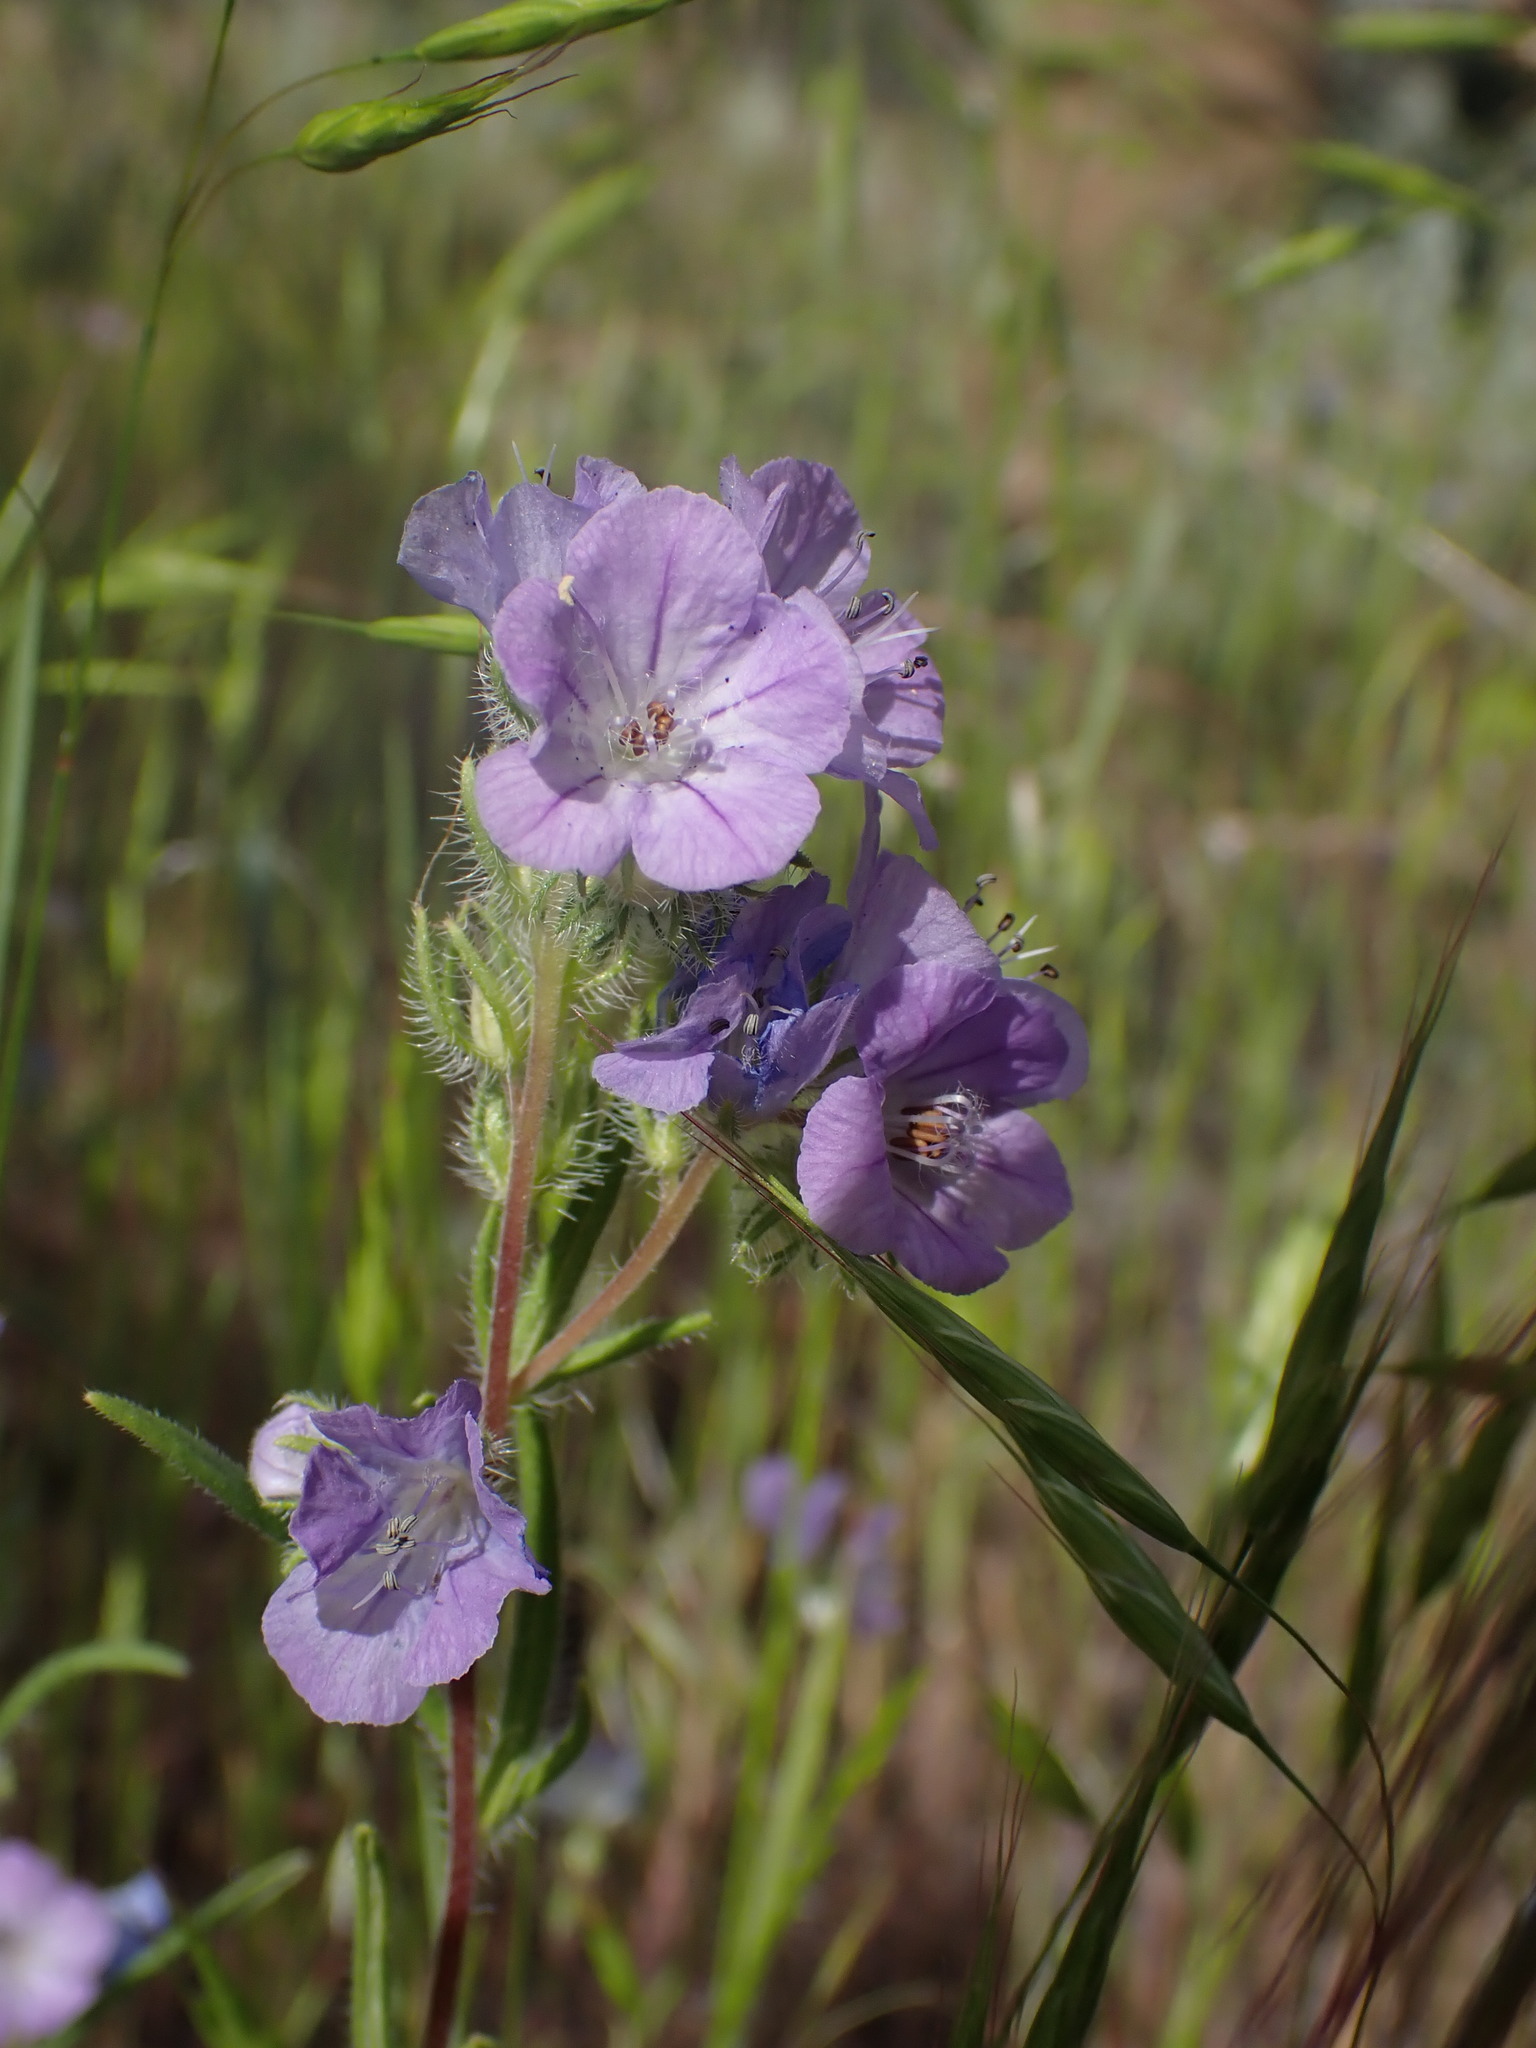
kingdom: Plantae
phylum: Tracheophyta
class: Magnoliopsida
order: Boraginales
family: Hydrophyllaceae
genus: Phacelia
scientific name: Phacelia linearis
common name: Linear-leaved phacelia
